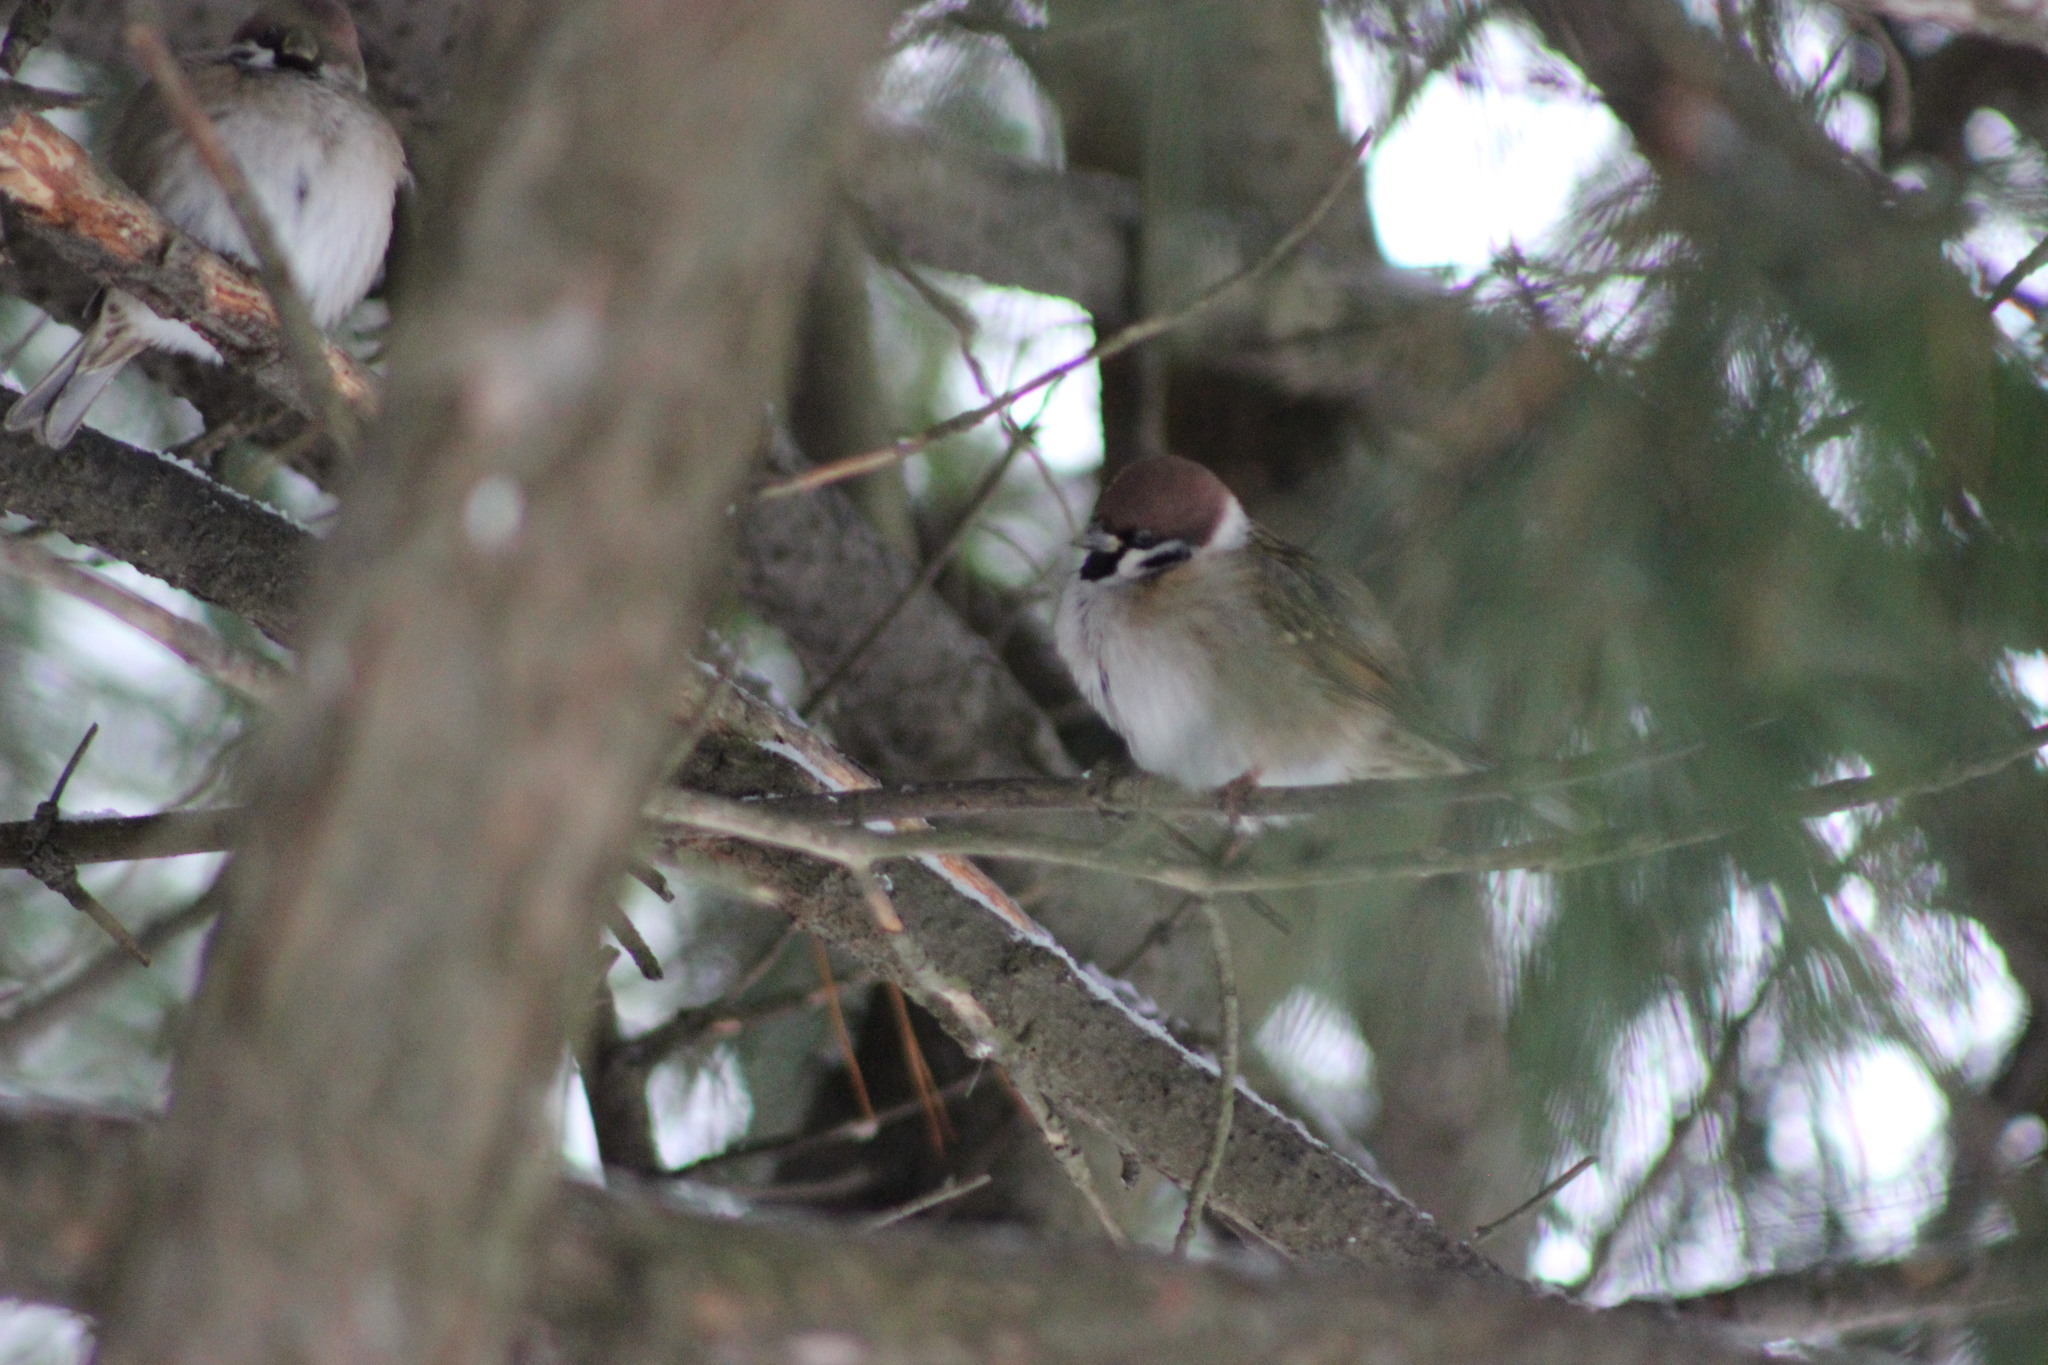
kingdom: Animalia
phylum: Chordata
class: Aves
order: Passeriformes
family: Passeridae
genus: Passer
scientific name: Passer montanus
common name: Eurasian tree sparrow
